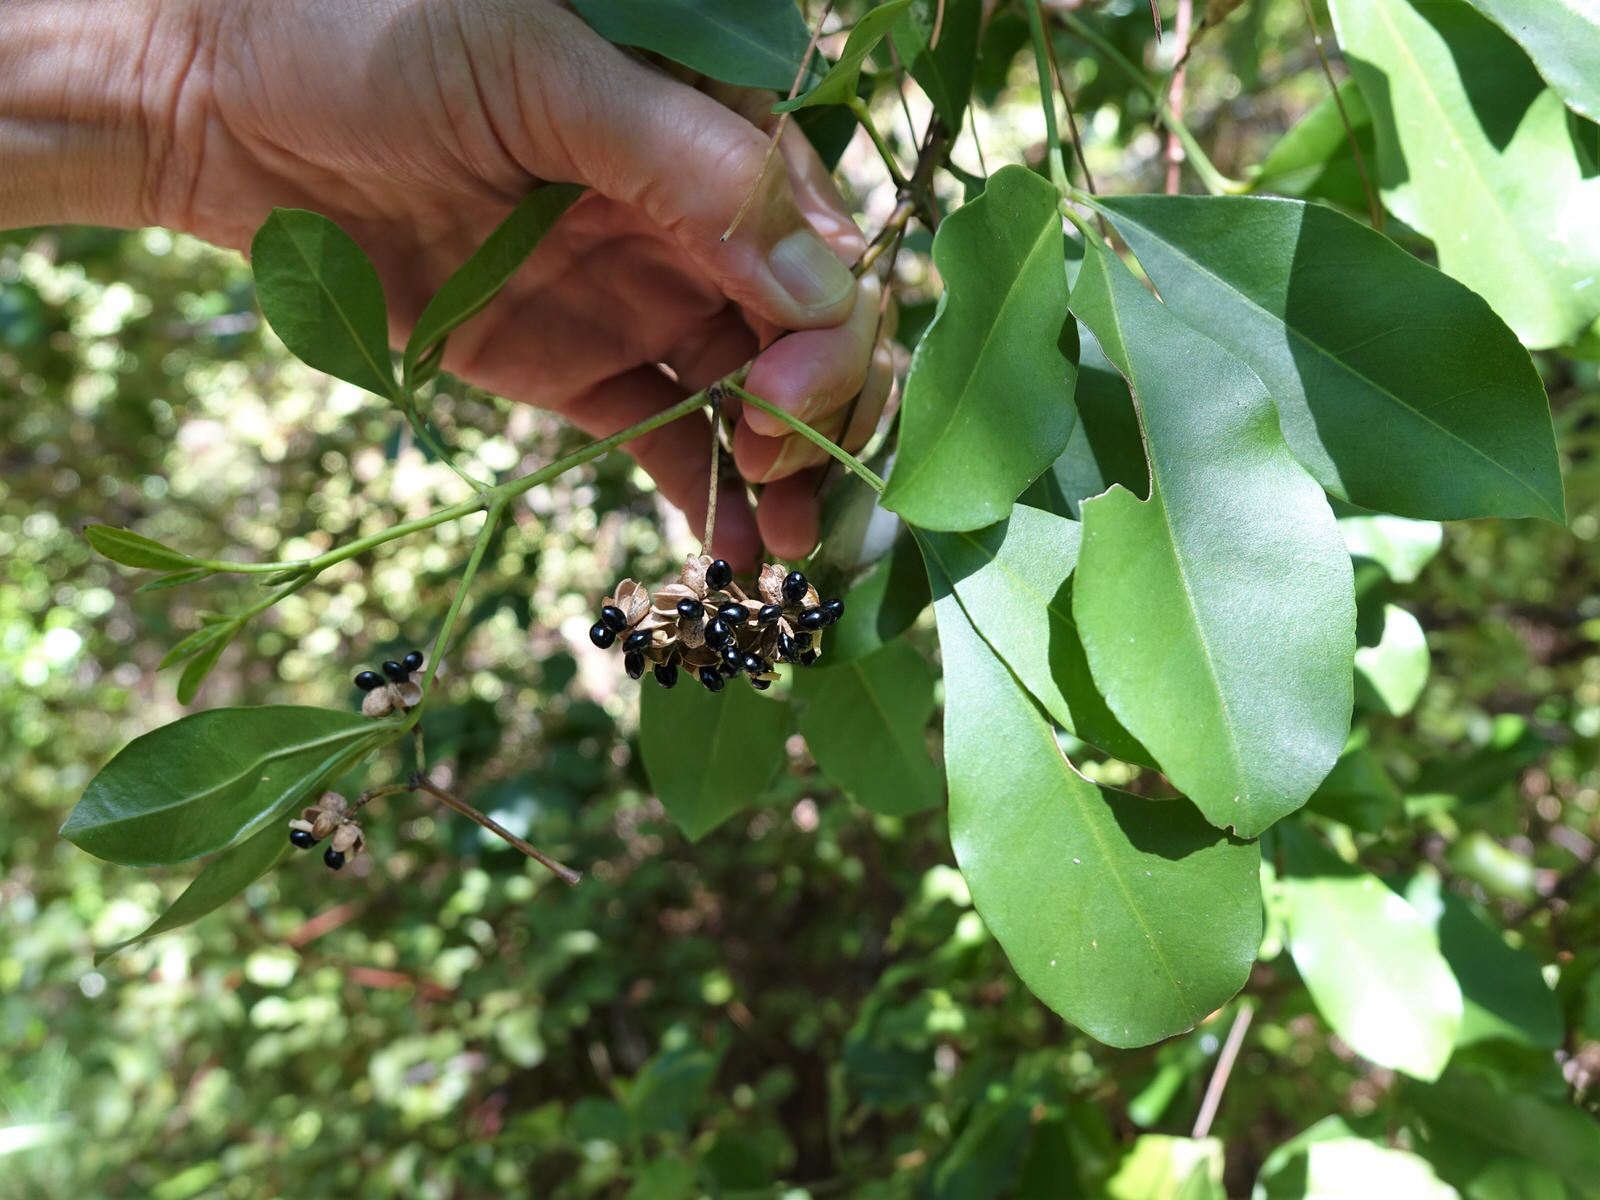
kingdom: Plantae
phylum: Tracheophyta
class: Magnoliopsida
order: Sapindales
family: Rutaceae
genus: Melicope
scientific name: Melicope ternata
